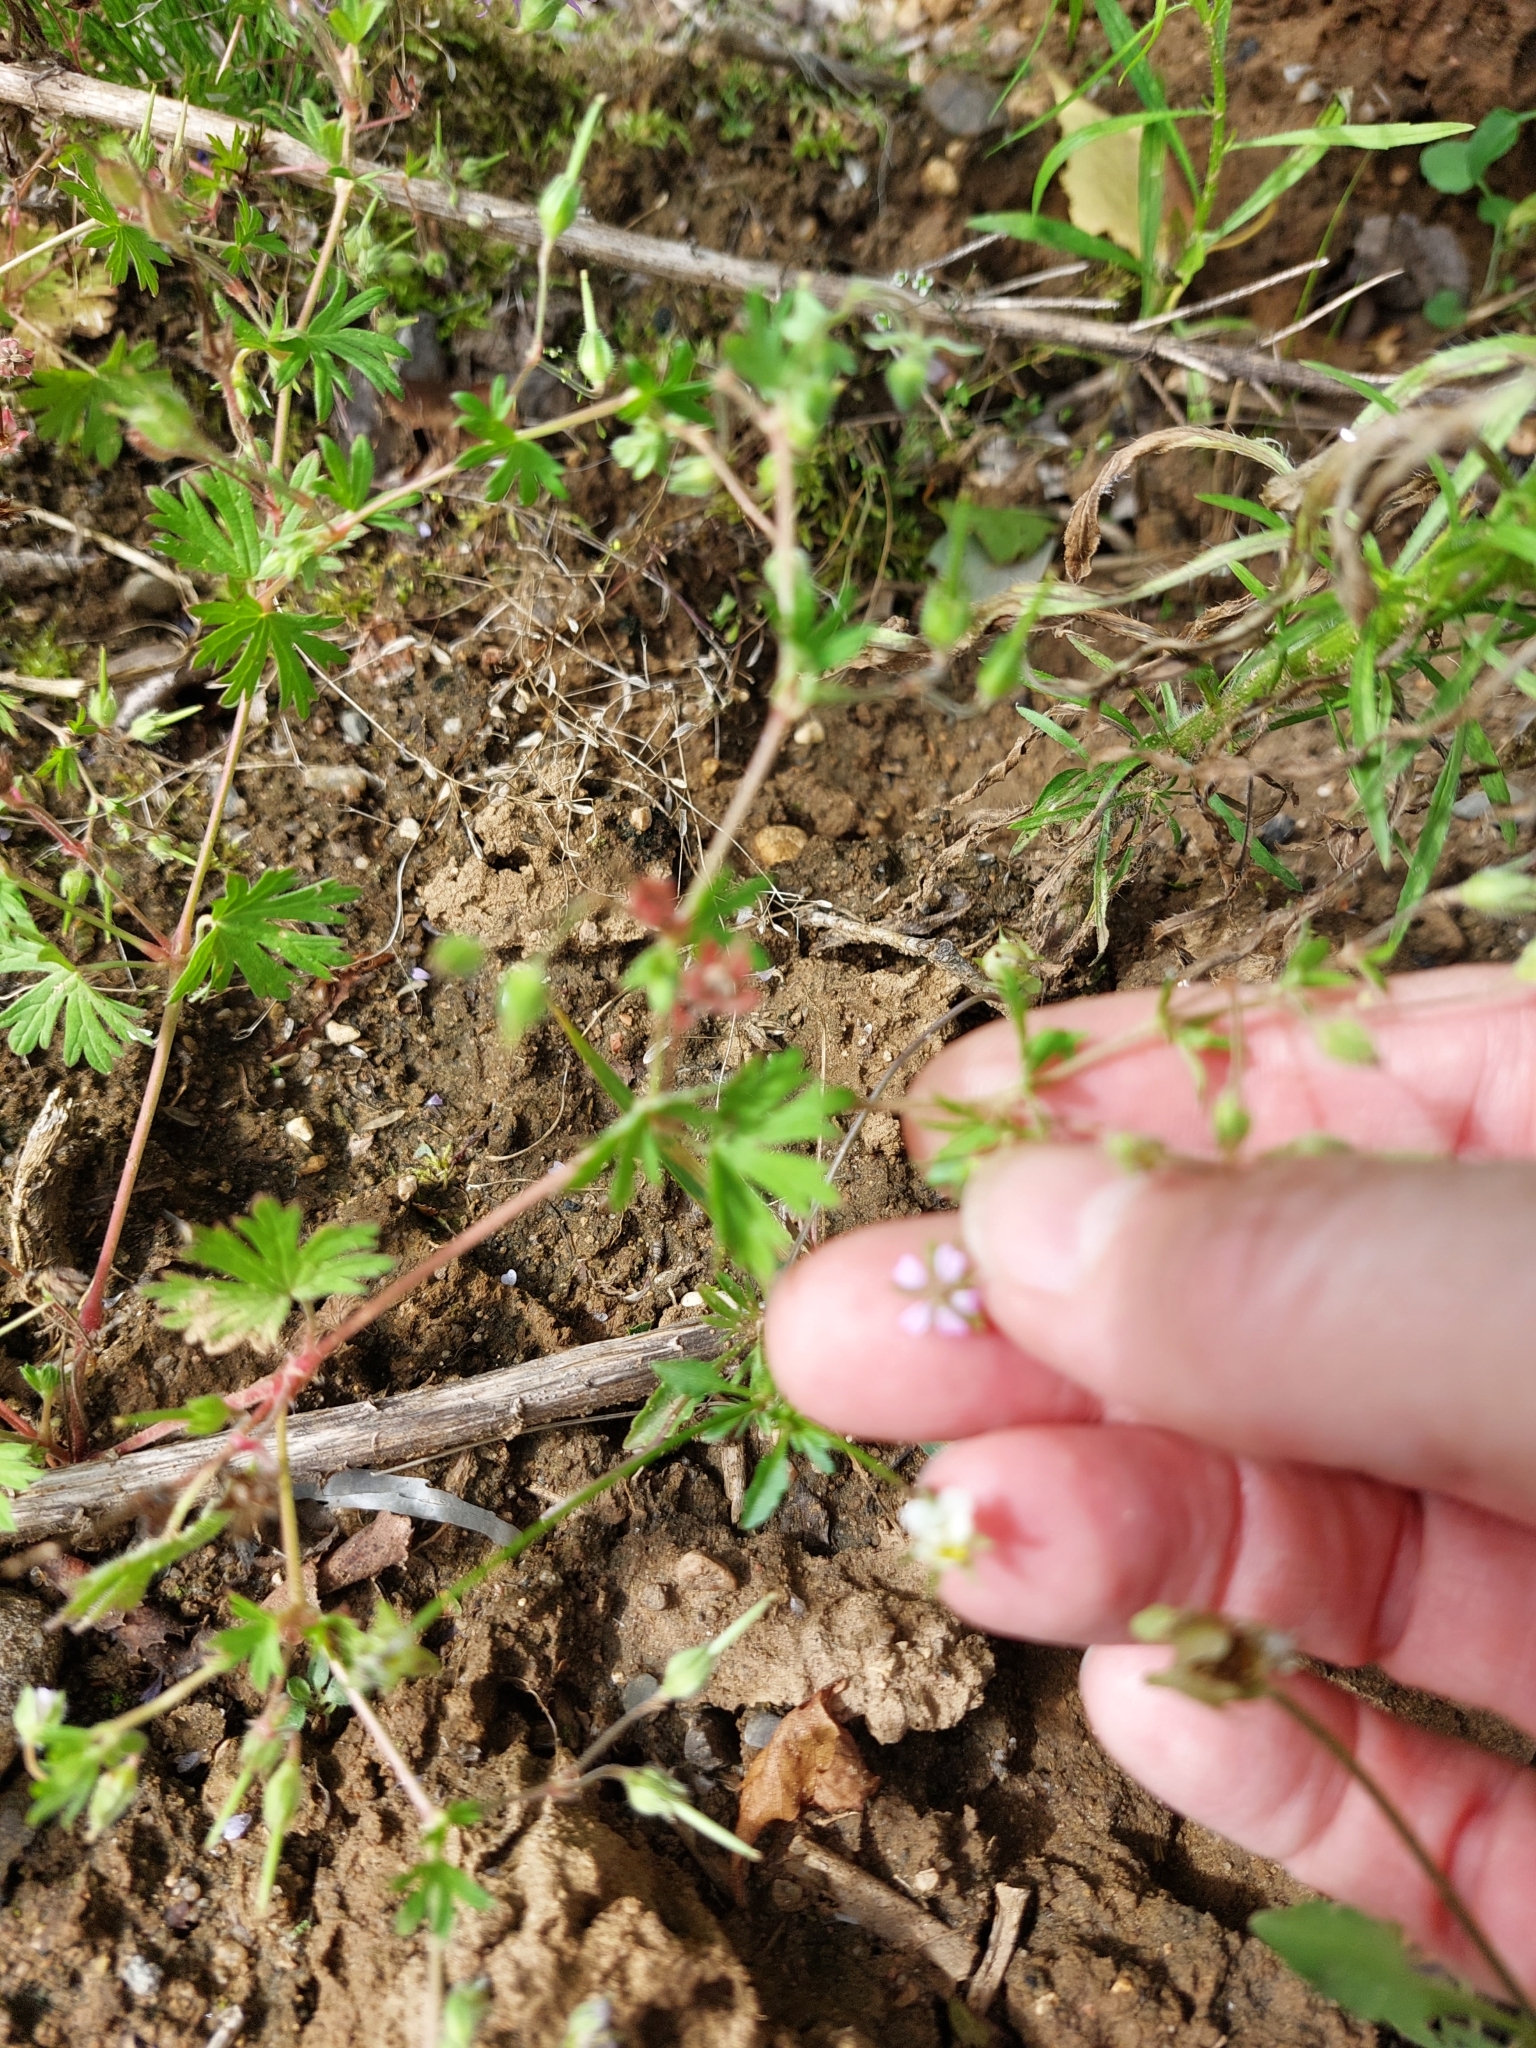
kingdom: Plantae
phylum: Tracheophyta
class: Magnoliopsida
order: Geraniales
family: Geraniaceae
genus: Geranium
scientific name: Geranium pusillum
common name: Small geranium
